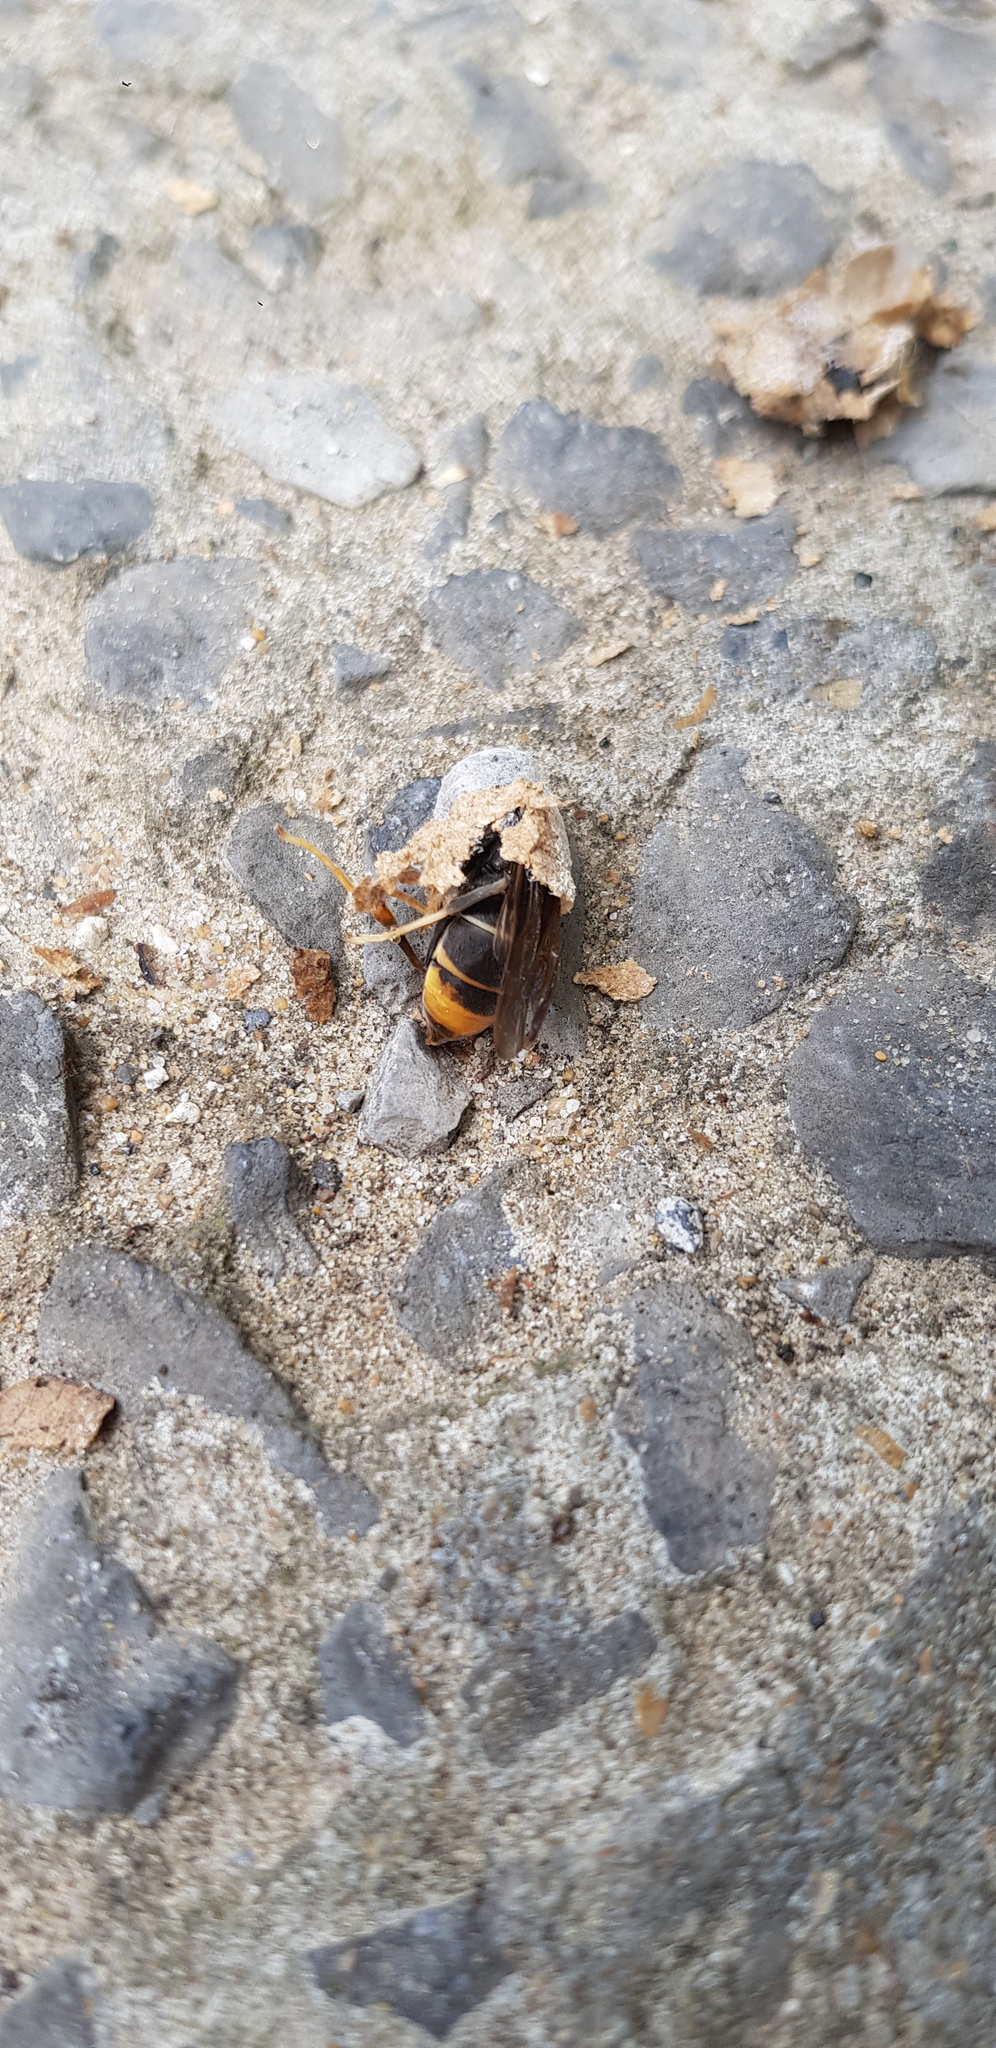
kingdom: Animalia
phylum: Arthropoda
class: Insecta
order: Hymenoptera
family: Vespidae
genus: Vespa
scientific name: Vespa velutina
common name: Asian hornet
